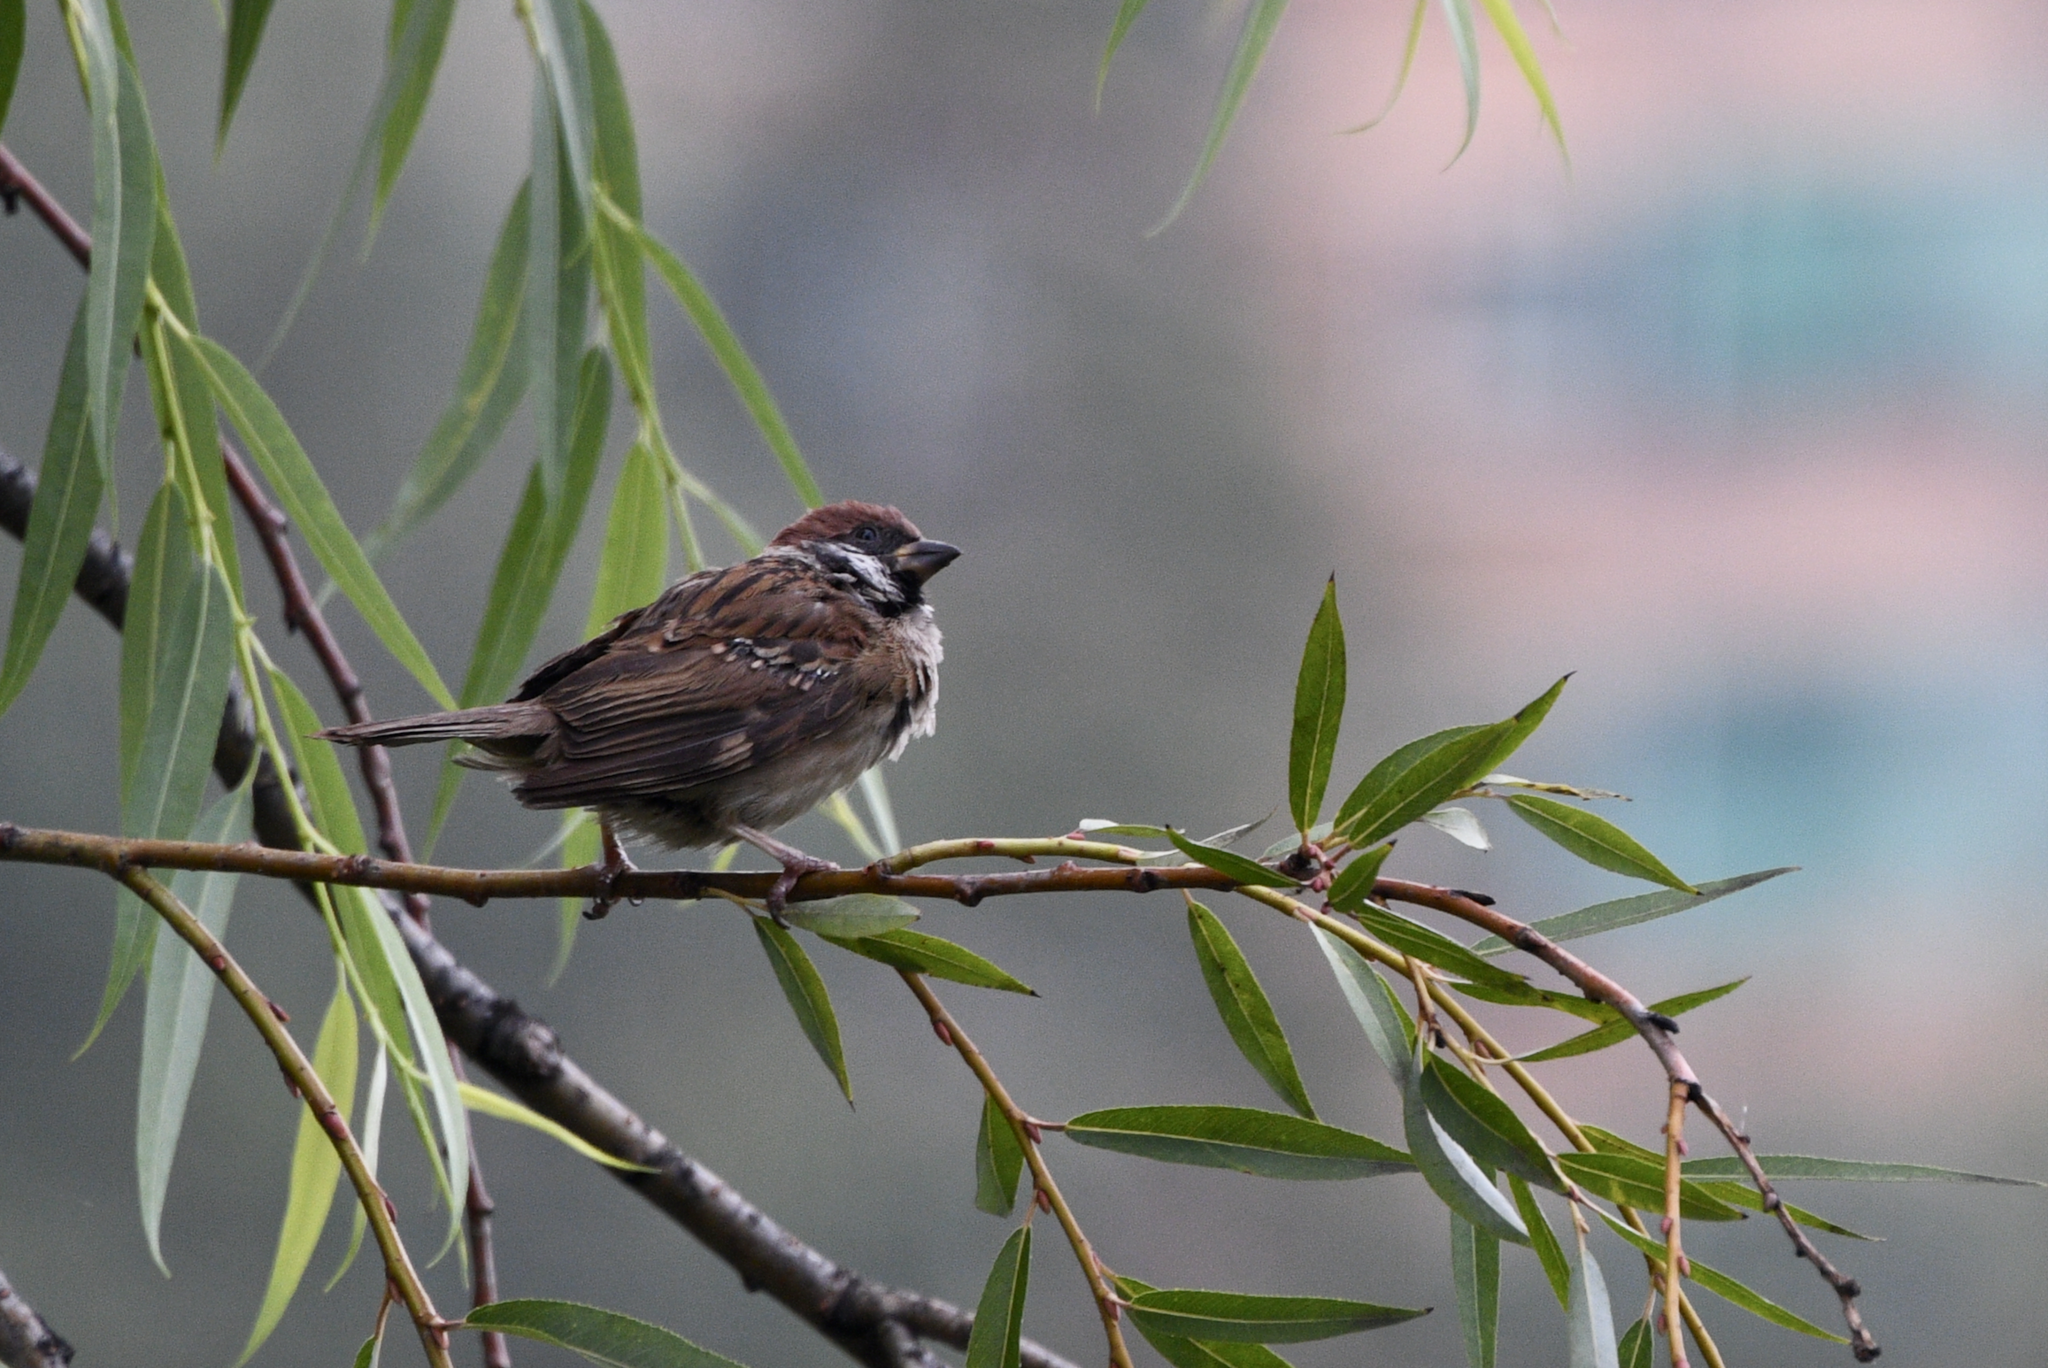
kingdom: Animalia
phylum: Chordata
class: Aves
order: Passeriformes
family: Passeridae
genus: Passer
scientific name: Passer montanus
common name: Eurasian tree sparrow
